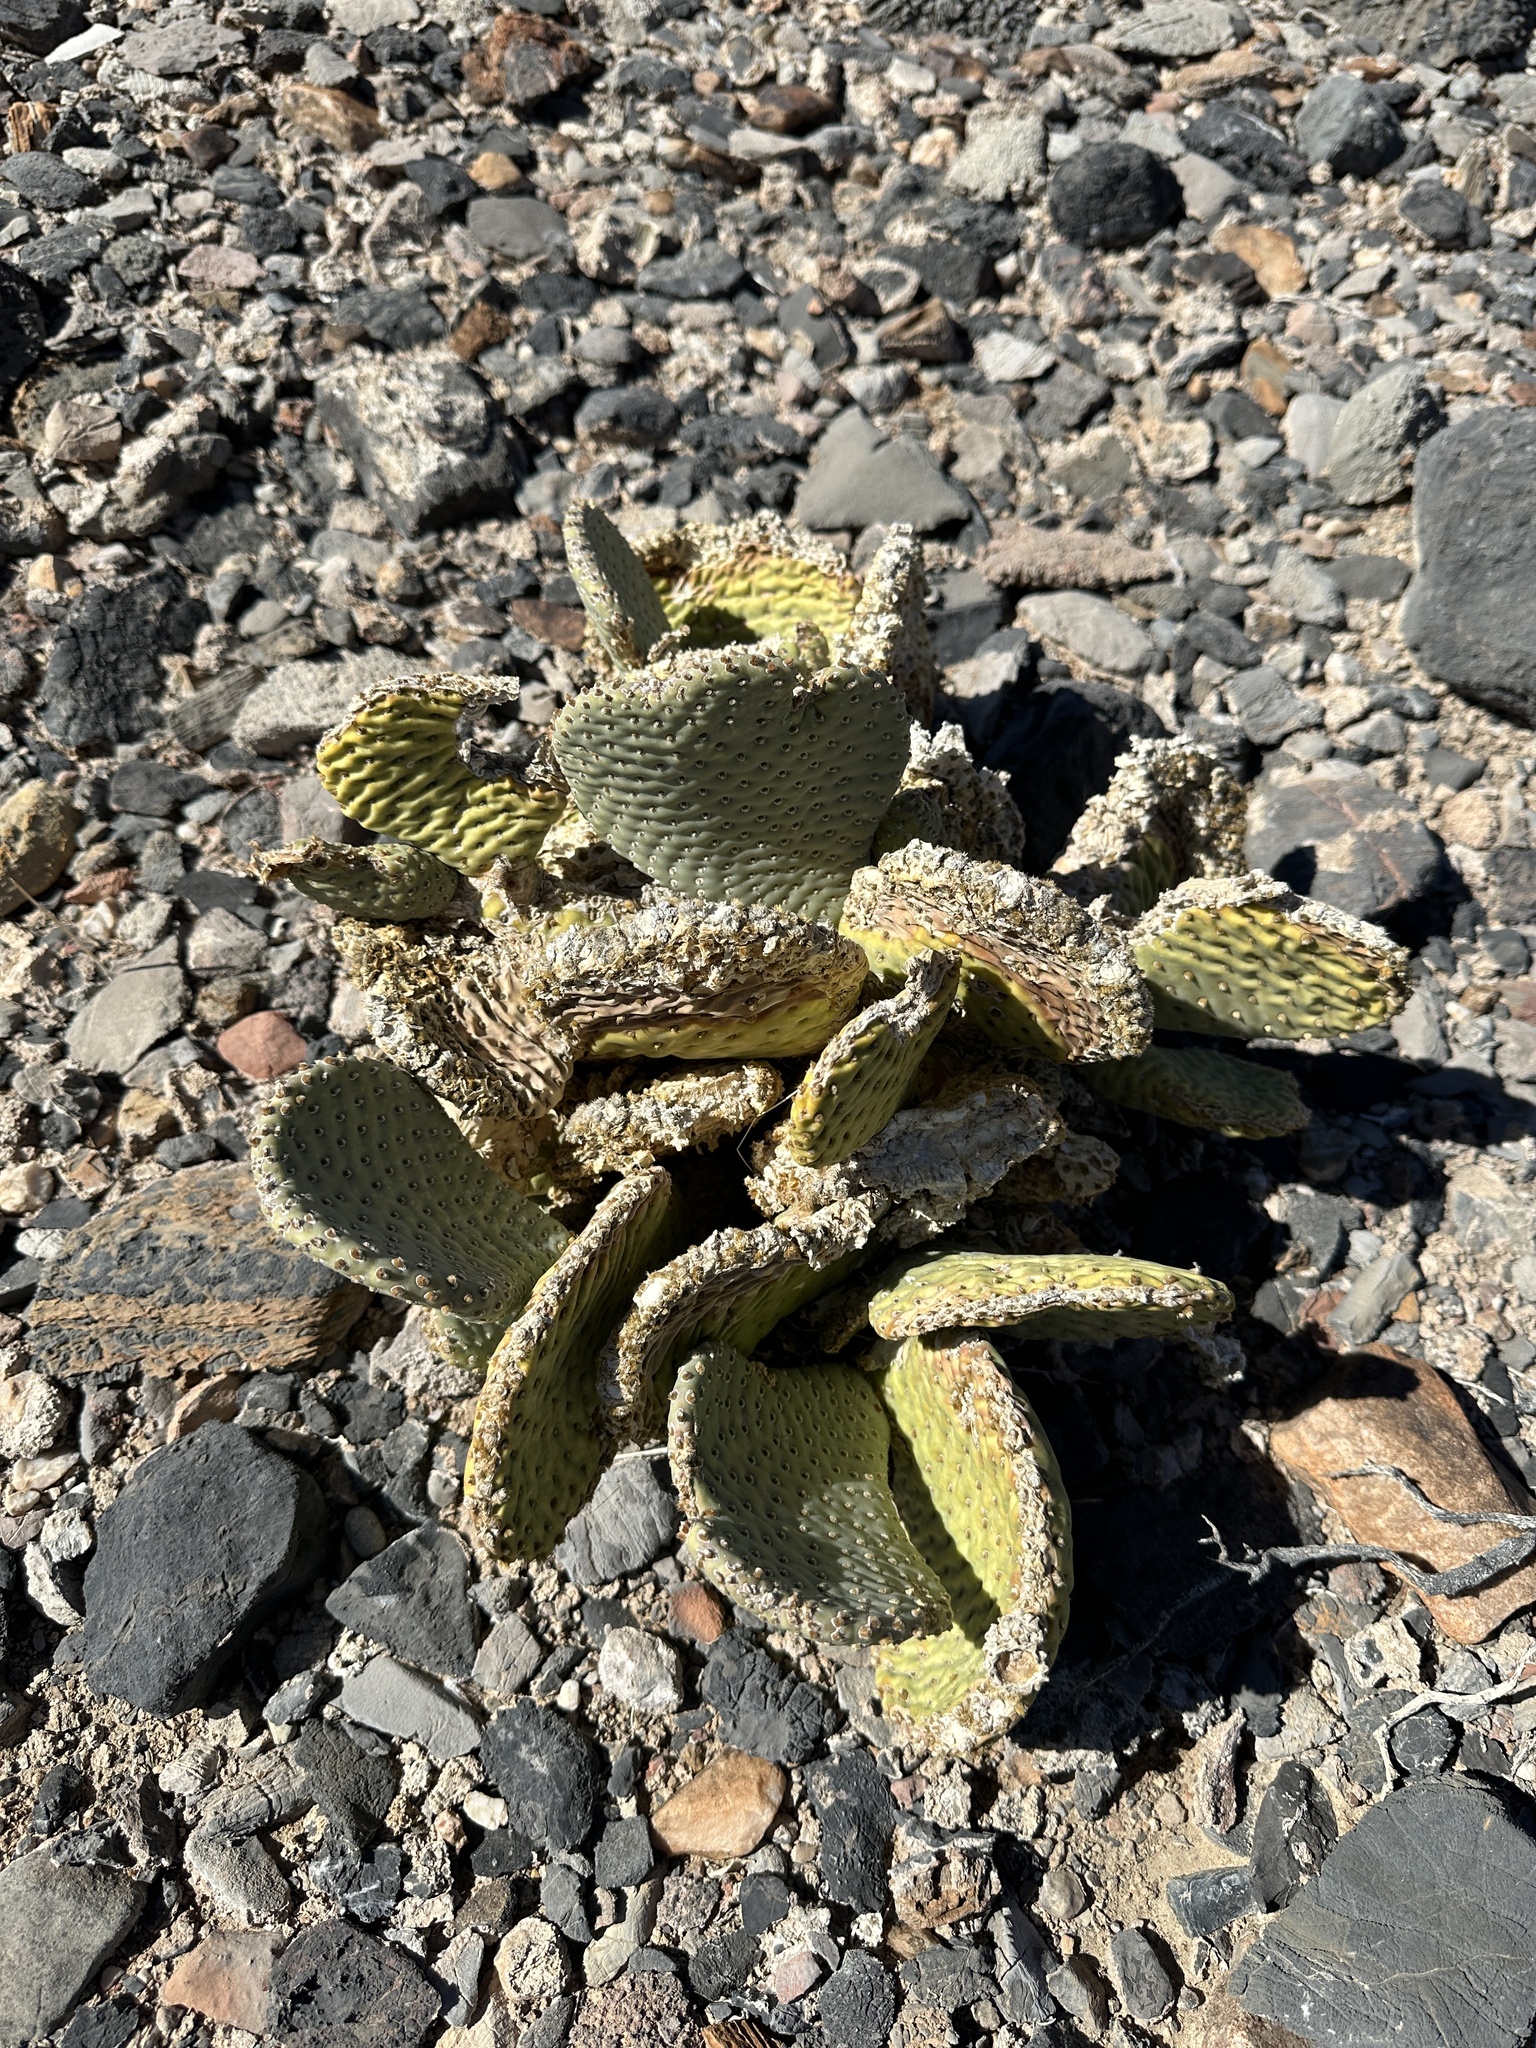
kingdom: Plantae
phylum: Tracheophyta
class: Magnoliopsida
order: Caryophyllales
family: Cactaceae
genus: Opuntia
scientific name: Opuntia basilaris
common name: Beavertail prickly-pear
